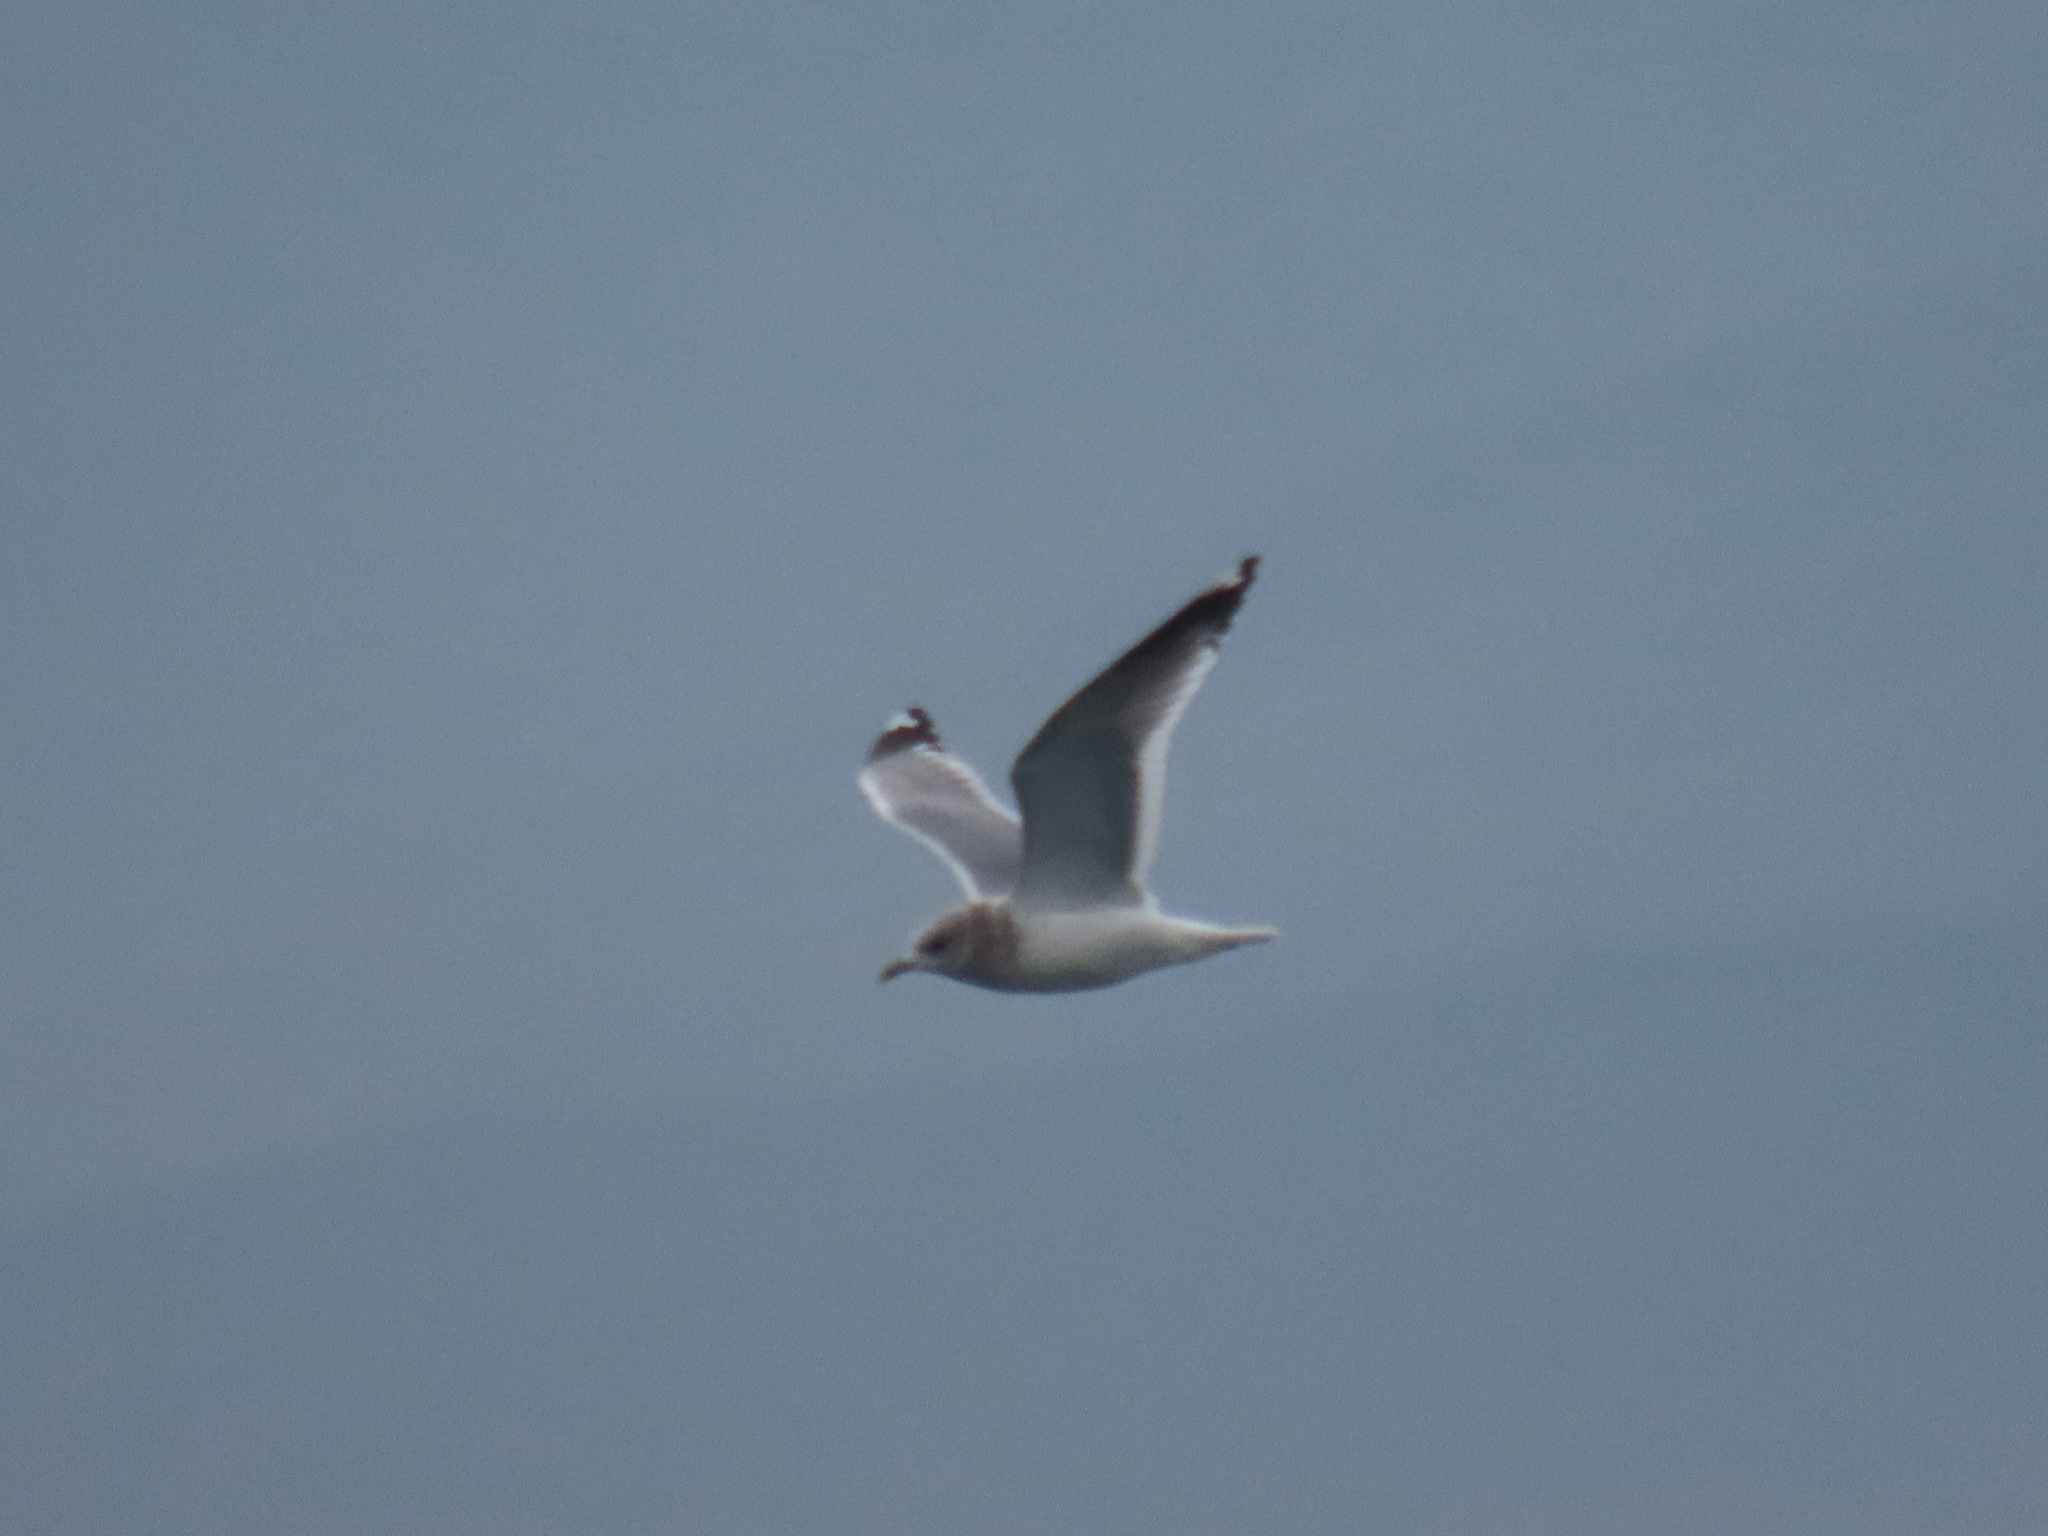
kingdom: Animalia
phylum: Chordata
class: Aves
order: Charadriiformes
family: Laridae
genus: Larus
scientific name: Larus brachyrhynchus
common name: Short-billed gull
